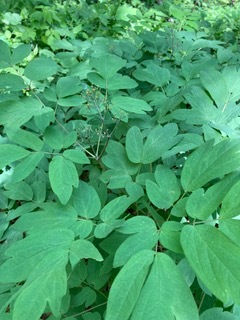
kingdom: Plantae
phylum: Tracheophyta
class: Magnoliopsida
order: Ranunculales
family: Berberidaceae
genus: Caulophyllum
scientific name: Caulophyllum thalictroides
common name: Blue cohosh
